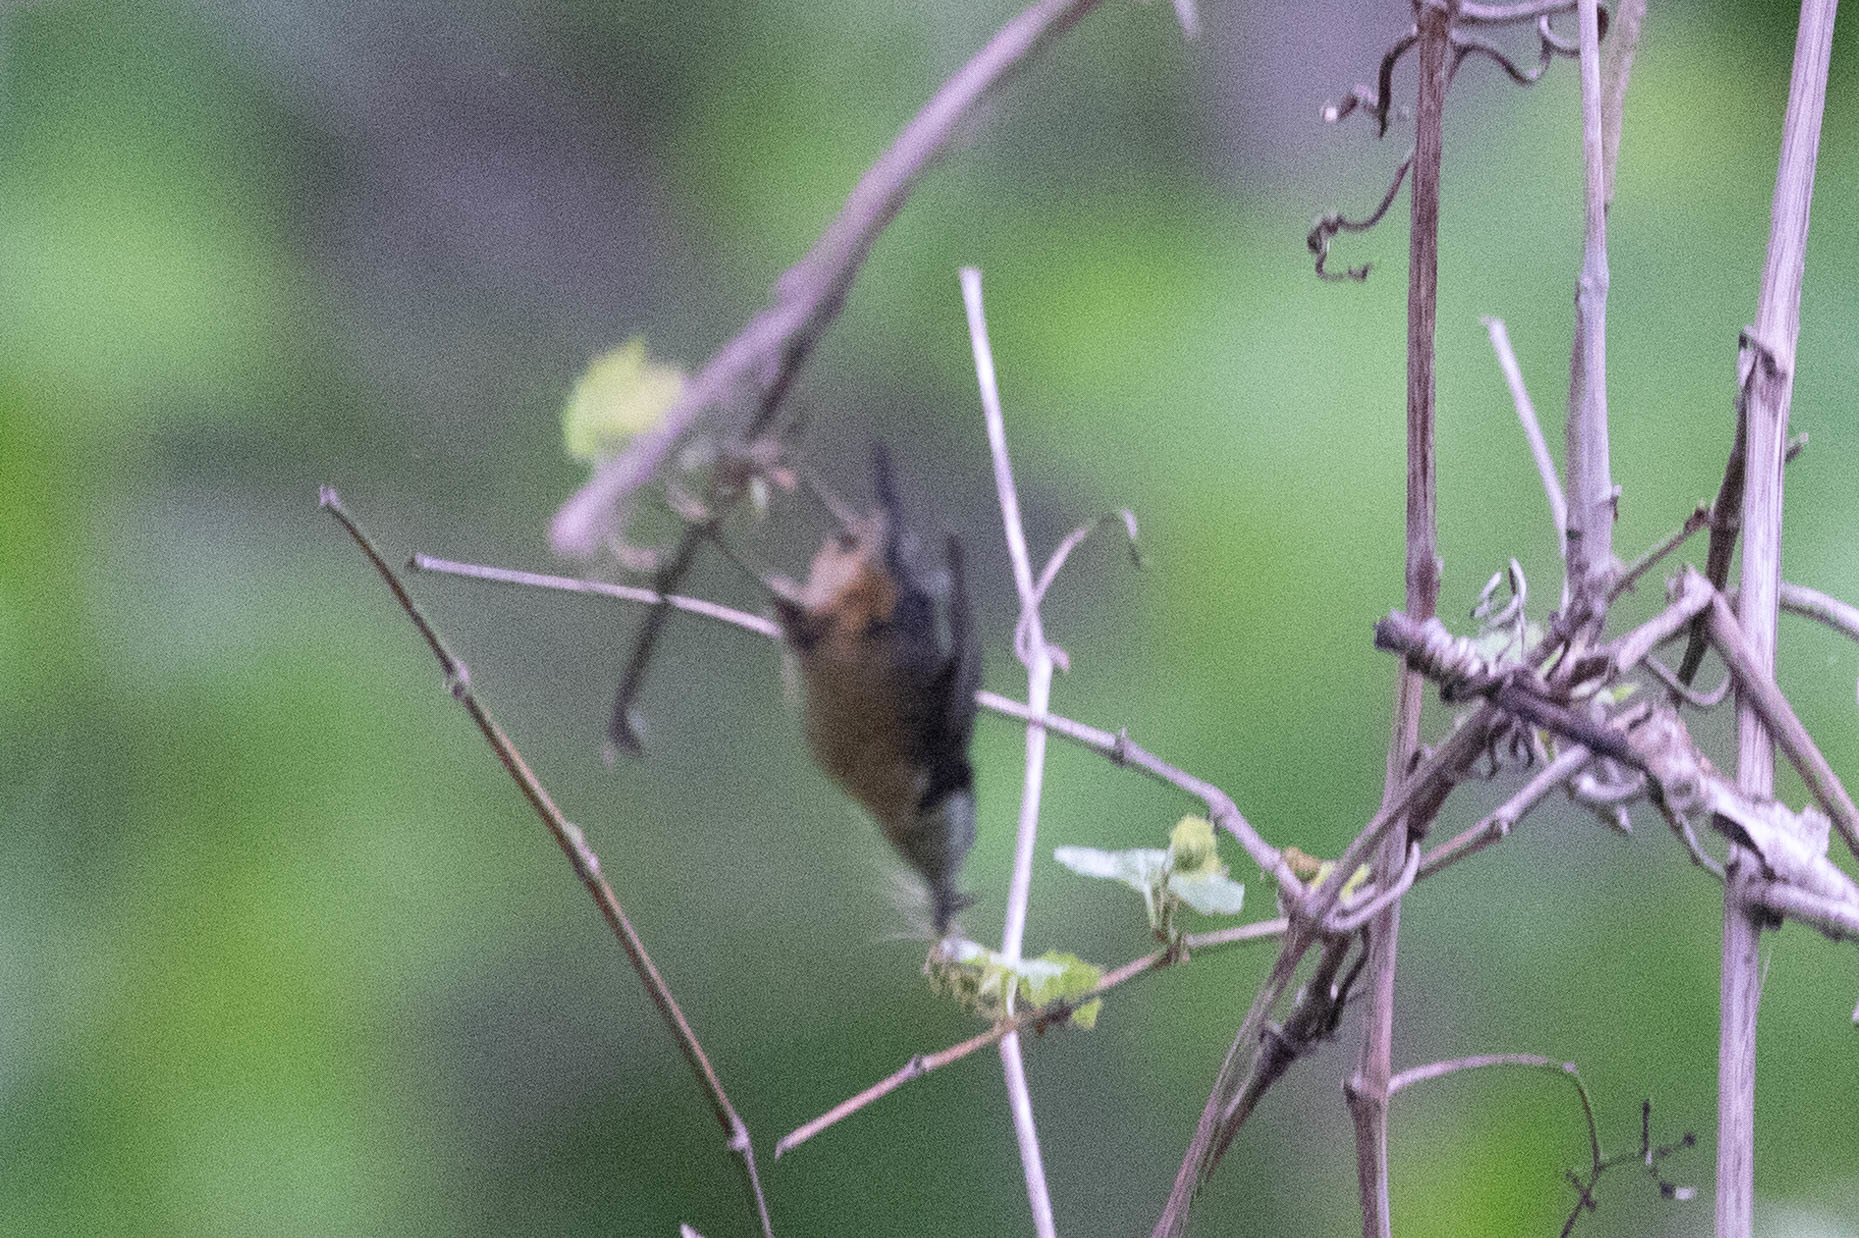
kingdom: Animalia
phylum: Chordata
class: Aves
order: Passeriformes
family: Sittidae
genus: Sitta
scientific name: Sitta canadensis
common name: Red-breasted nuthatch
